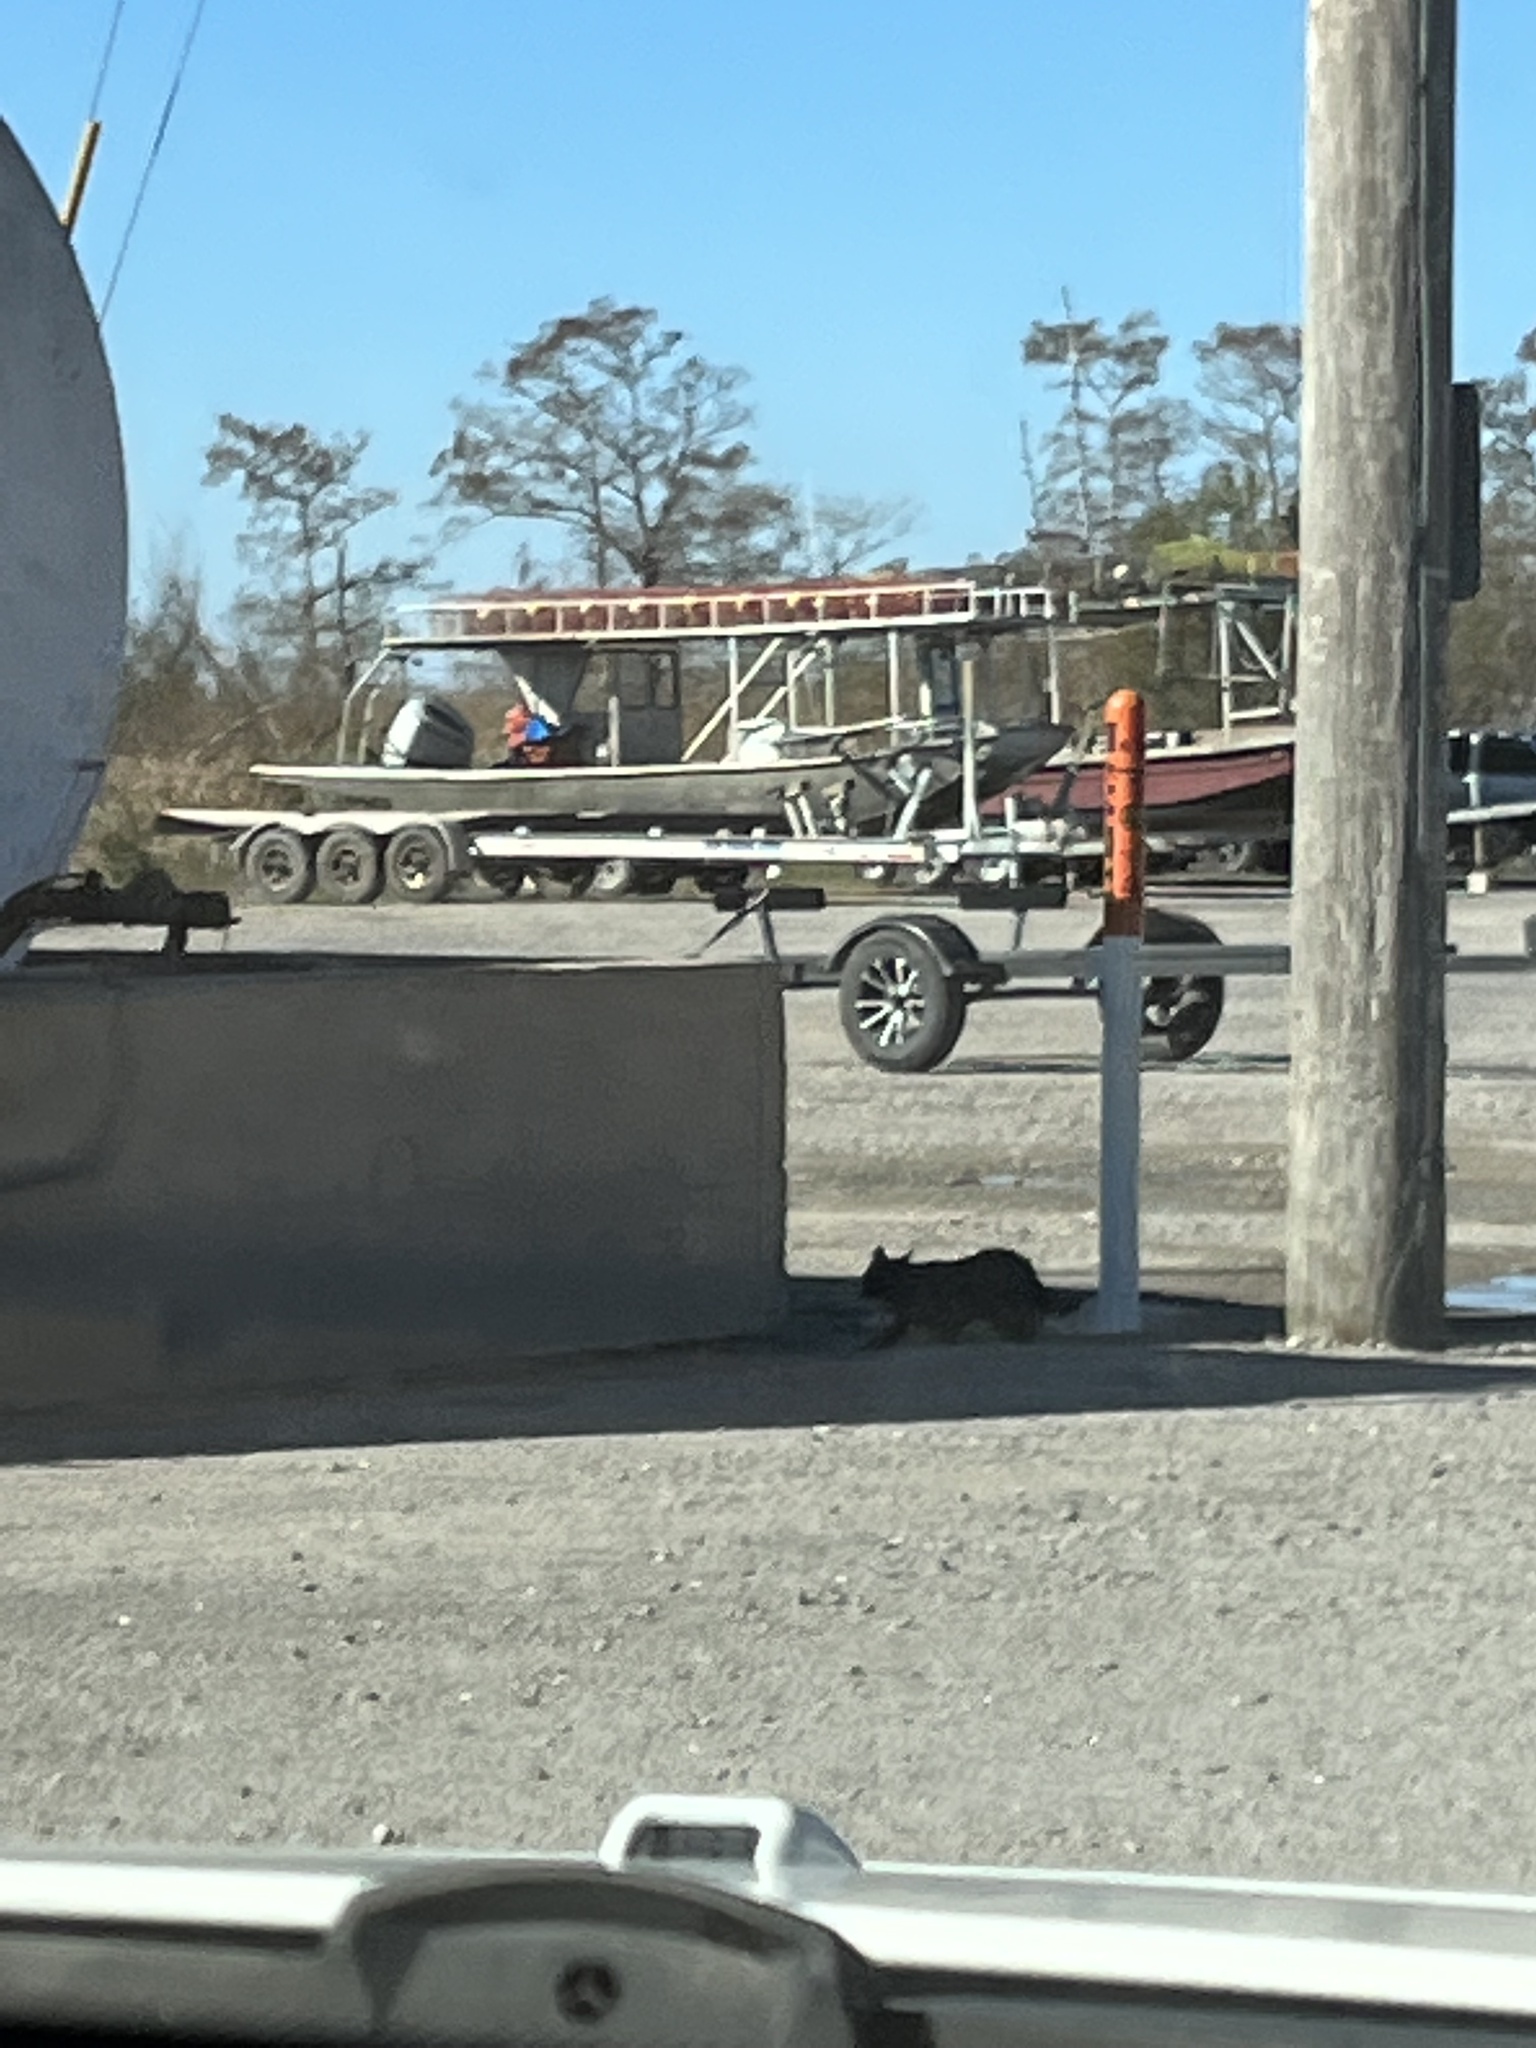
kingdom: Animalia
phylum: Chordata
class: Mammalia
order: Carnivora
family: Felidae
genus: Felis
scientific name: Felis catus
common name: Domestic cat
